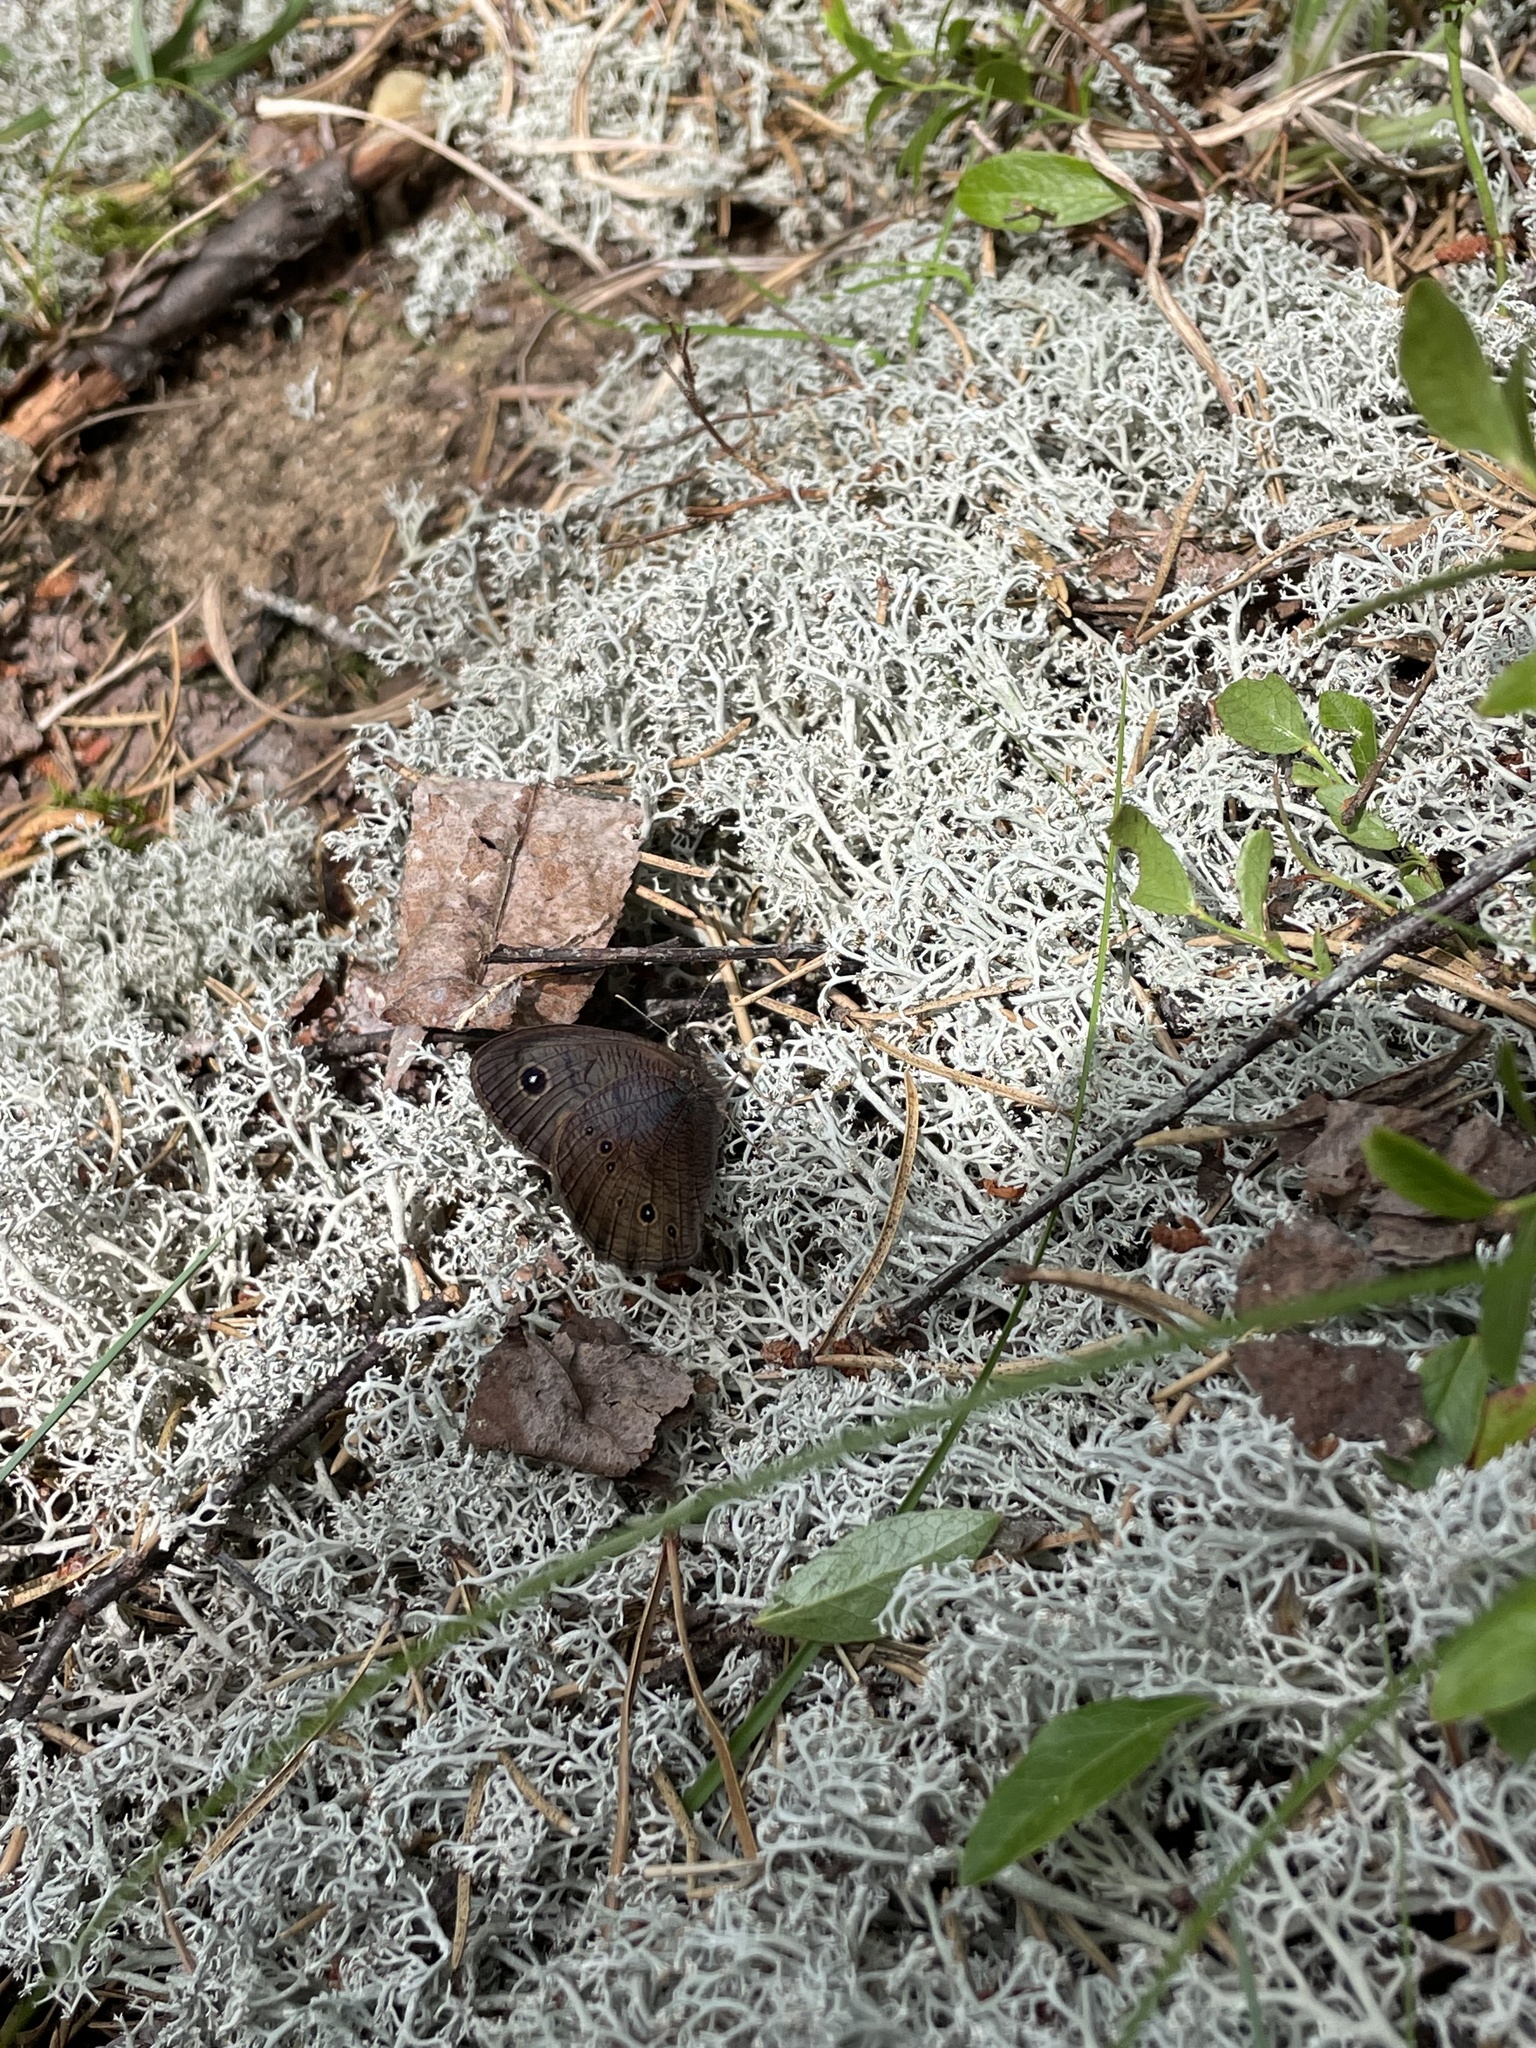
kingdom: Animalia
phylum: Arthropoda
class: Insecta
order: Lepidoptera
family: Nymphalidae
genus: Cercyonis
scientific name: Cercyonis pegala
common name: Common wood-nymph
